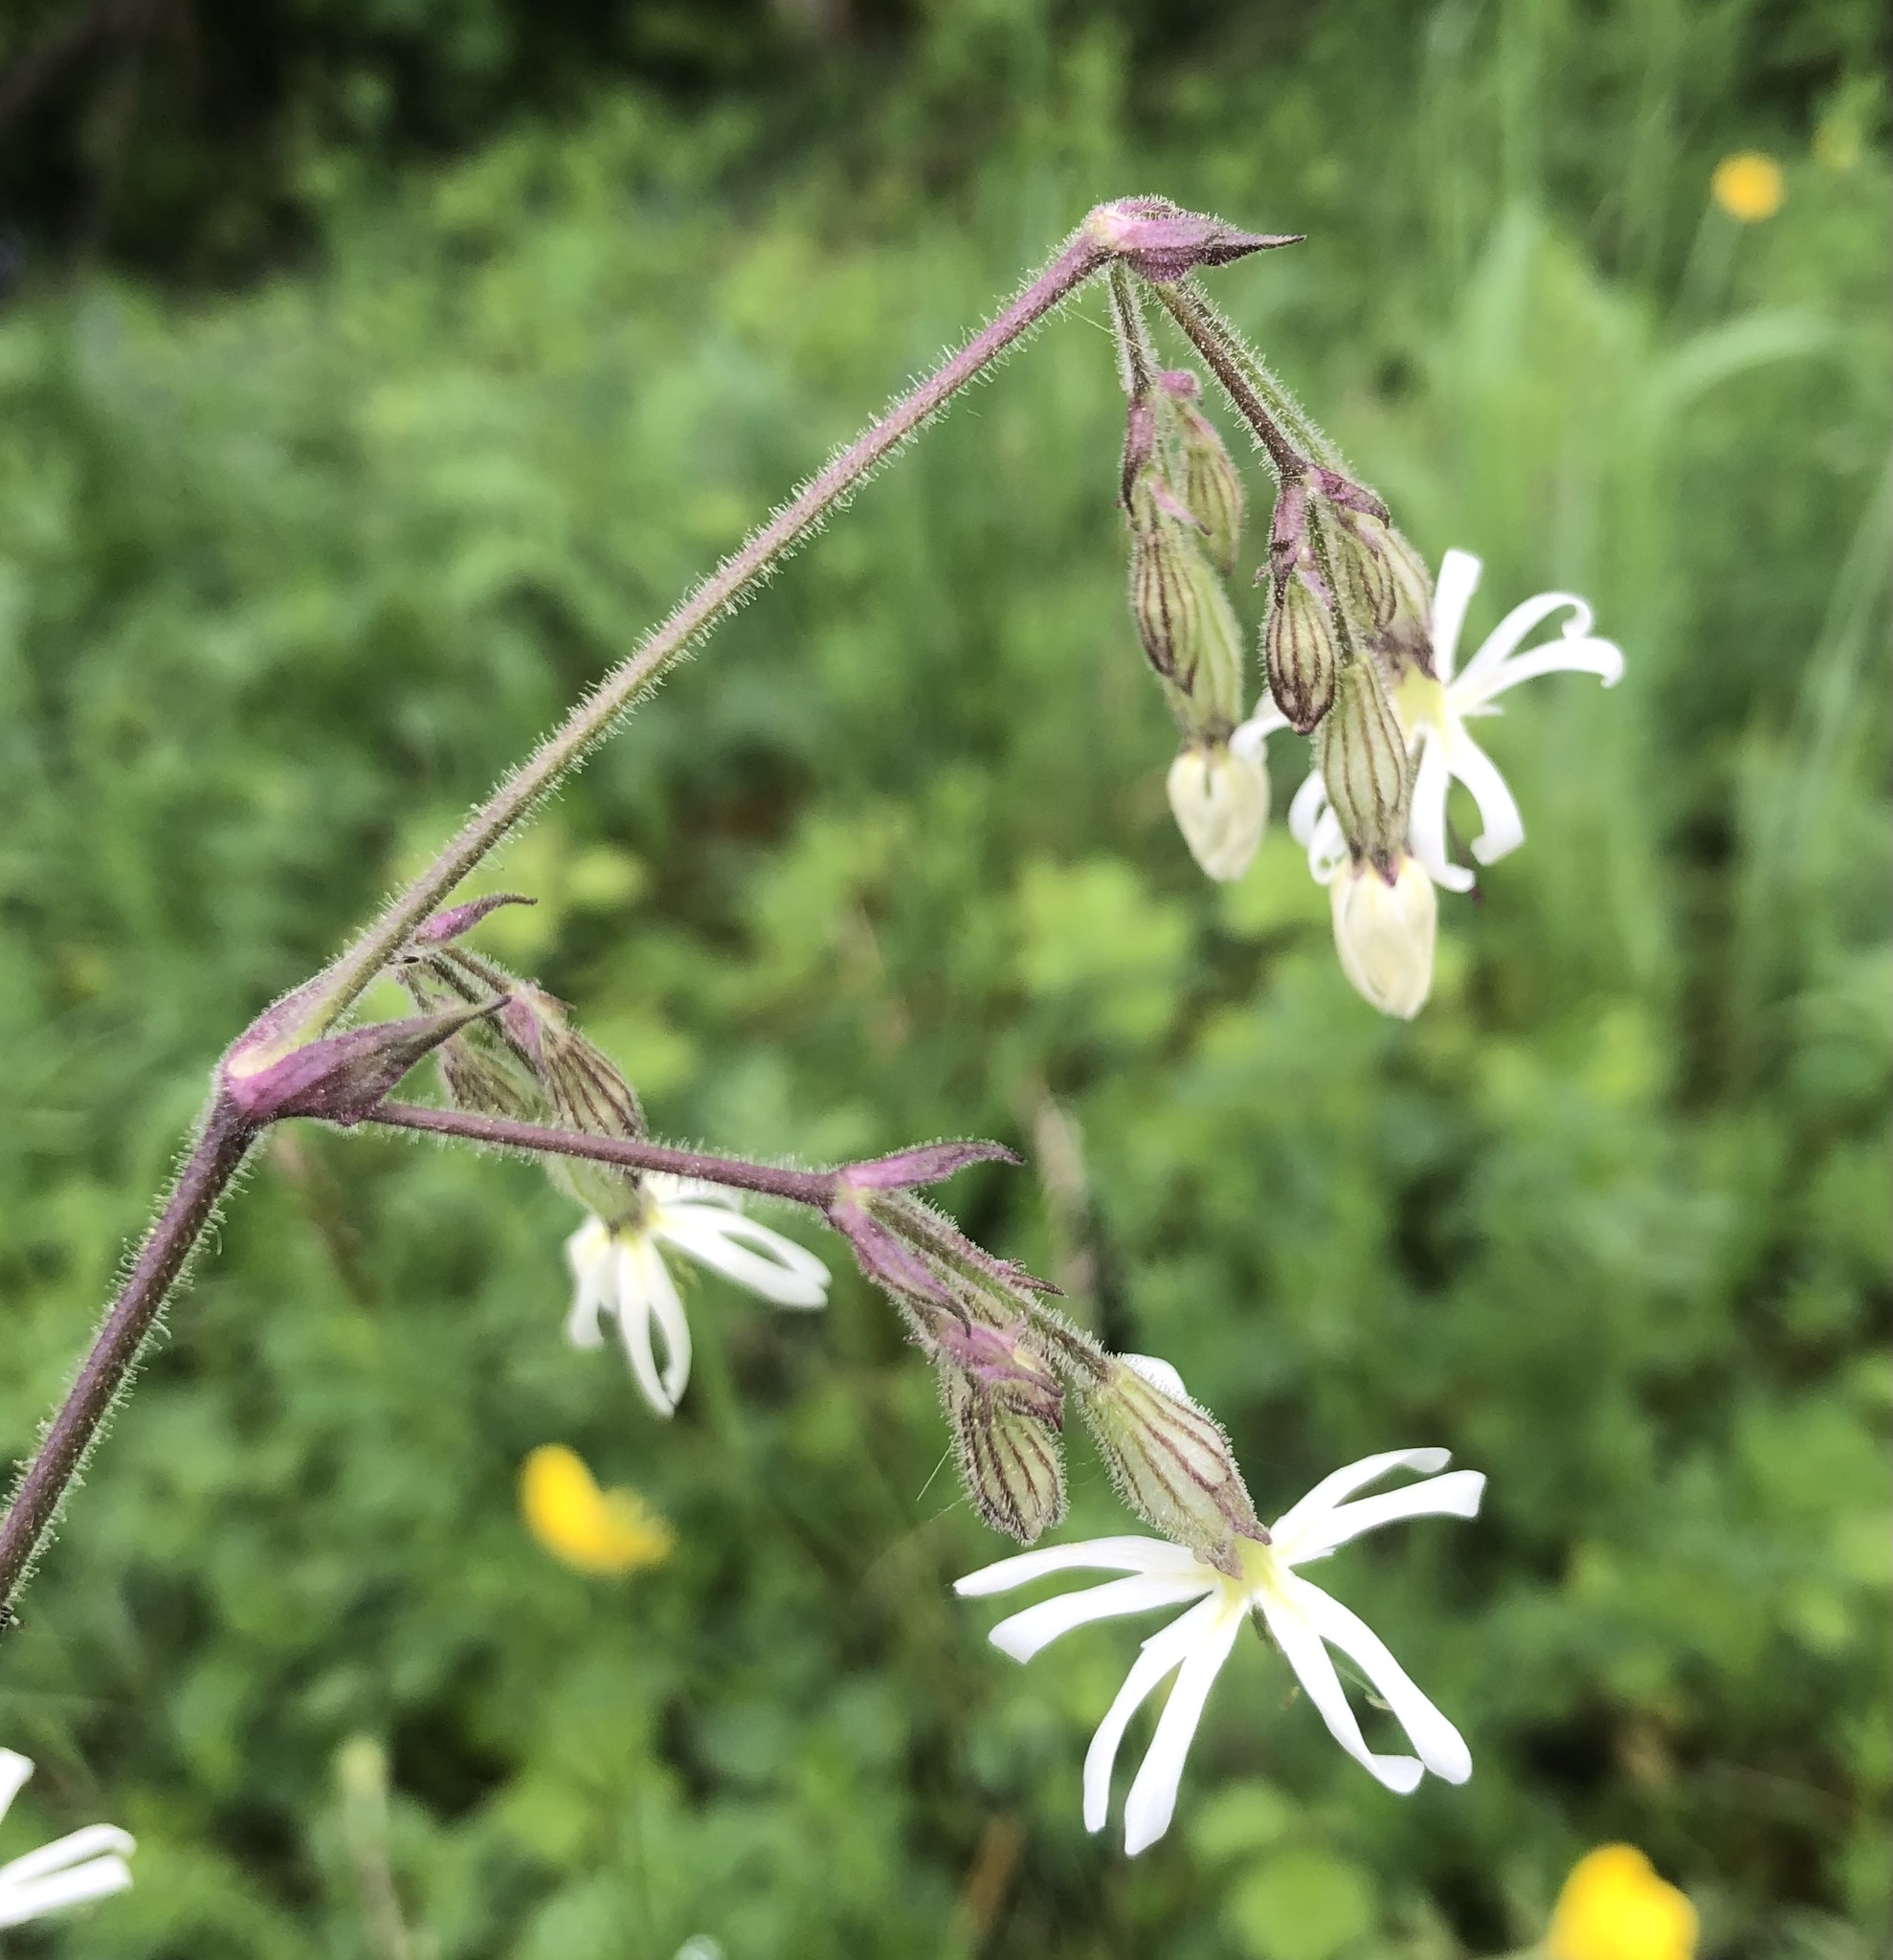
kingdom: Plantae
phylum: Tracheophyta
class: Magnoliopsida
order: Caryophyllales
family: Caryophyllaceae
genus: Silene
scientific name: Silene nutans
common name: Nottingham catchfly
